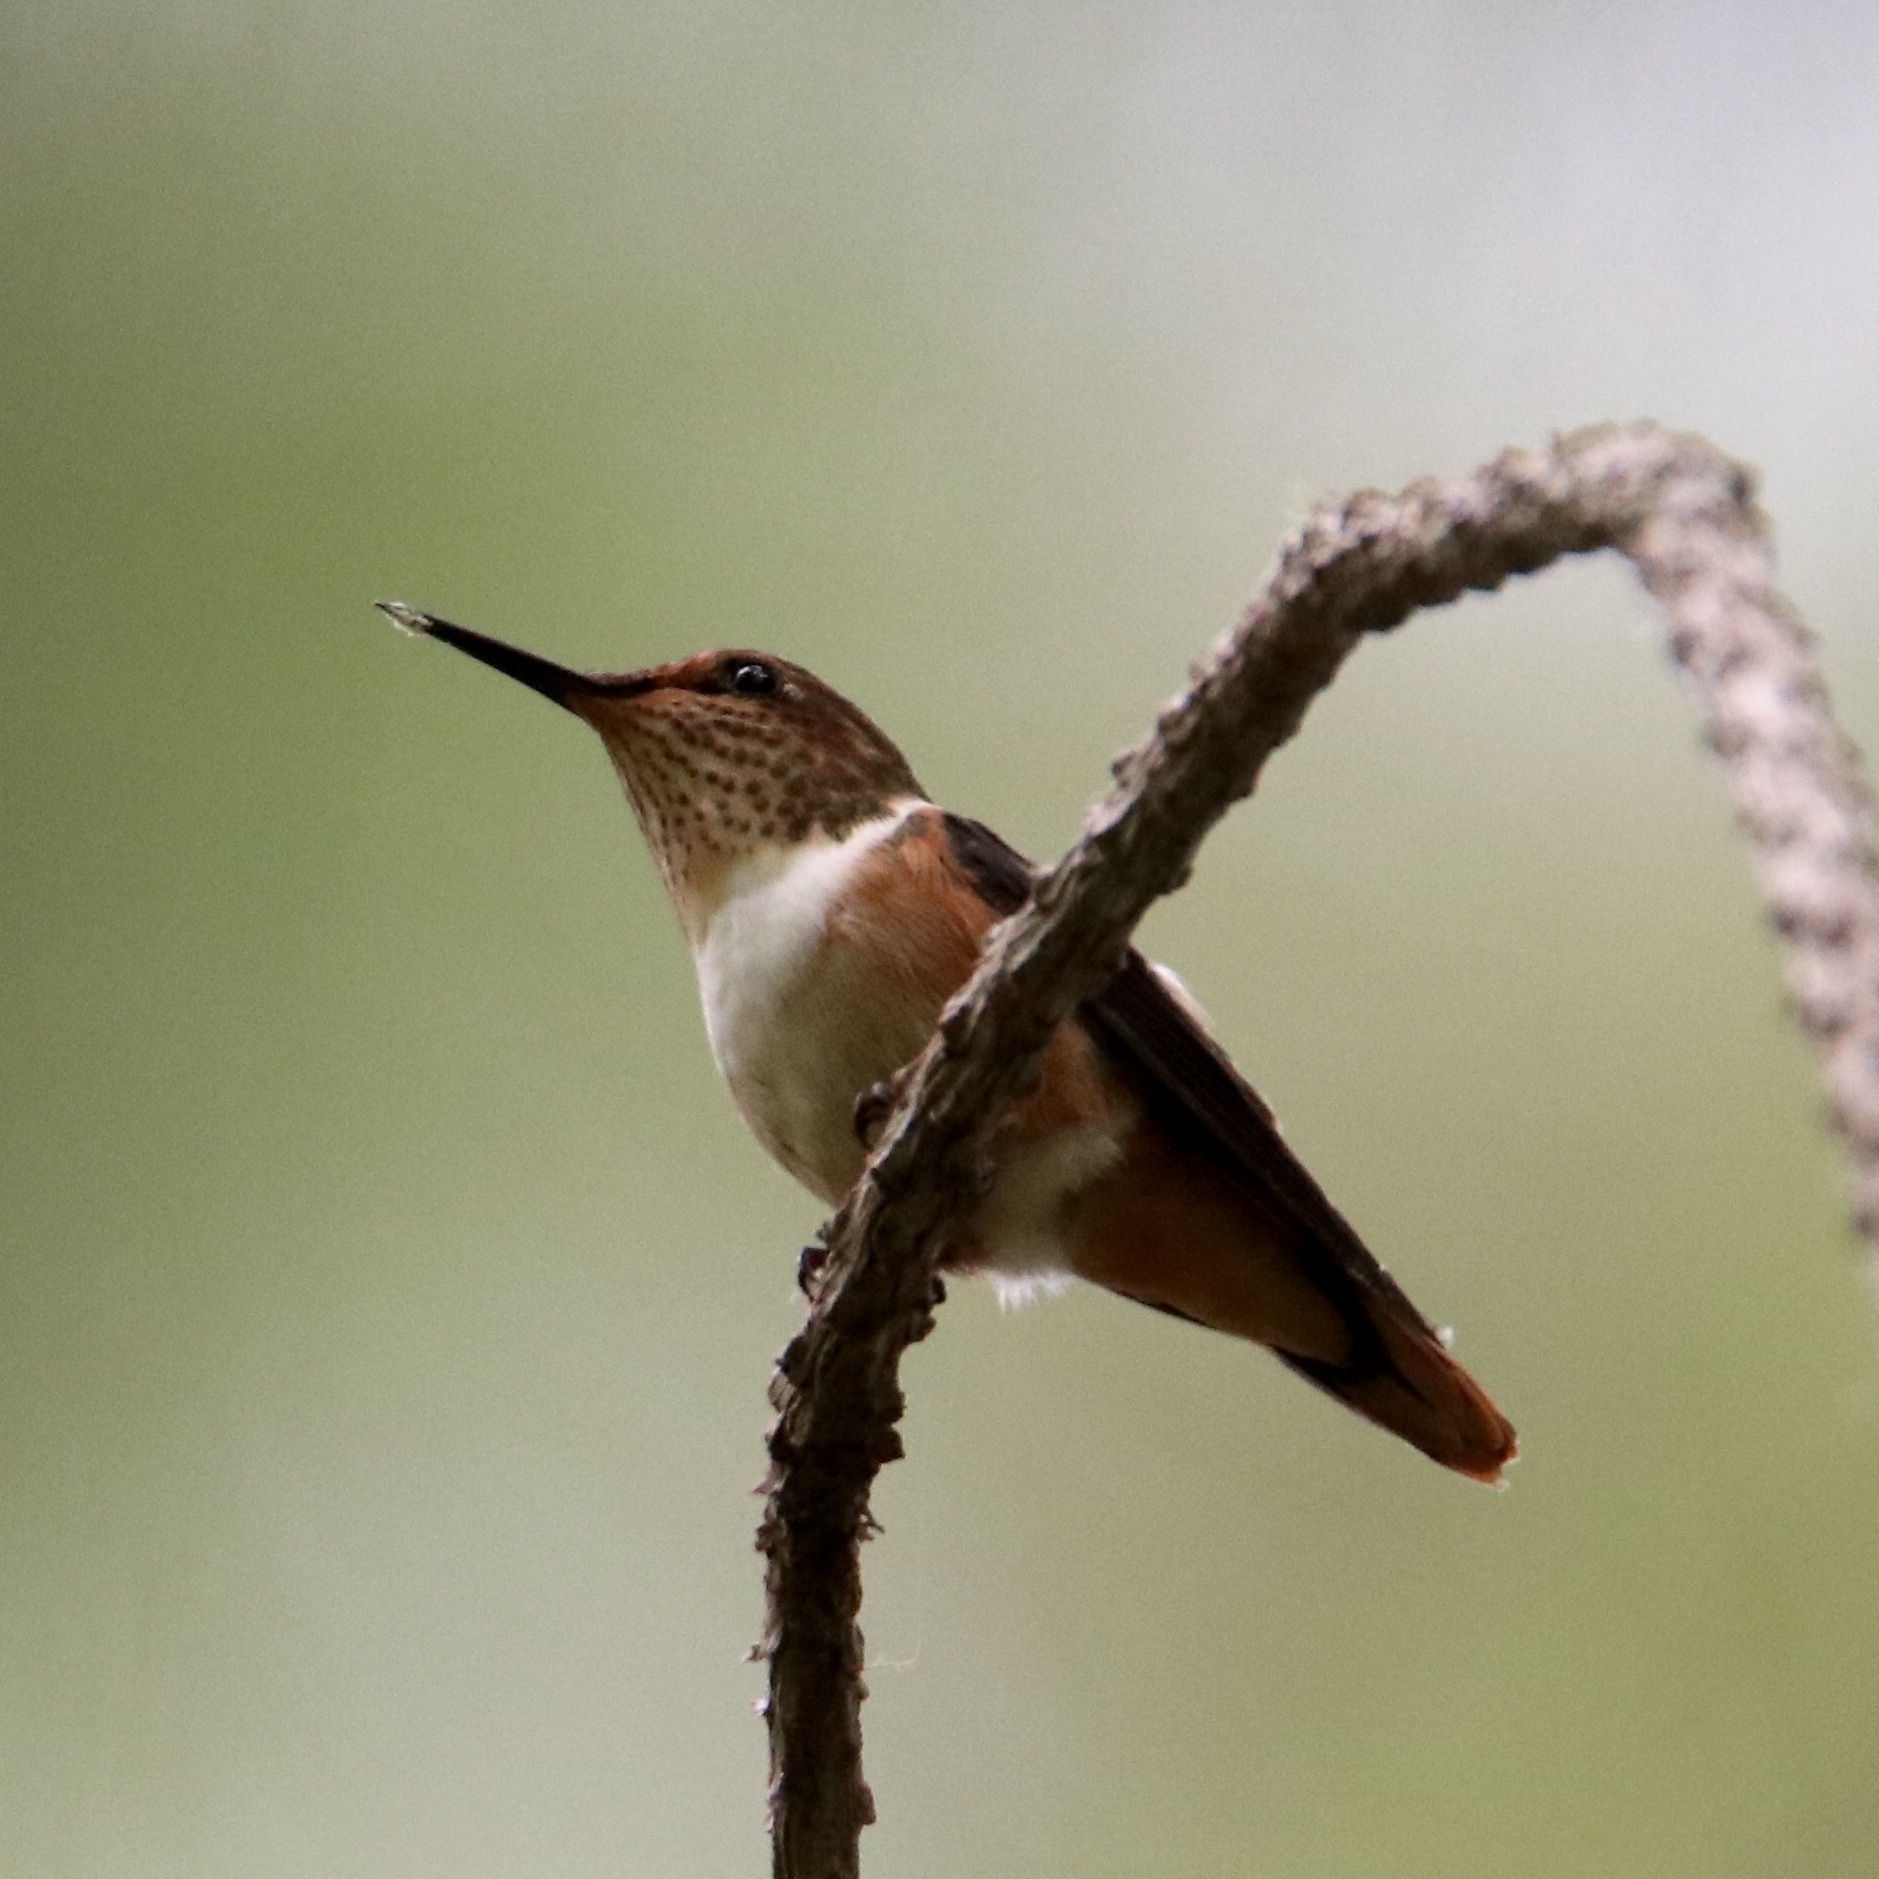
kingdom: Animalia
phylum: Chordata
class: Aves
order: Apodiformes
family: Trochilidae
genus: Selasphorus
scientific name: Selasphorus scintilla
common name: Scintillant hummingbird
